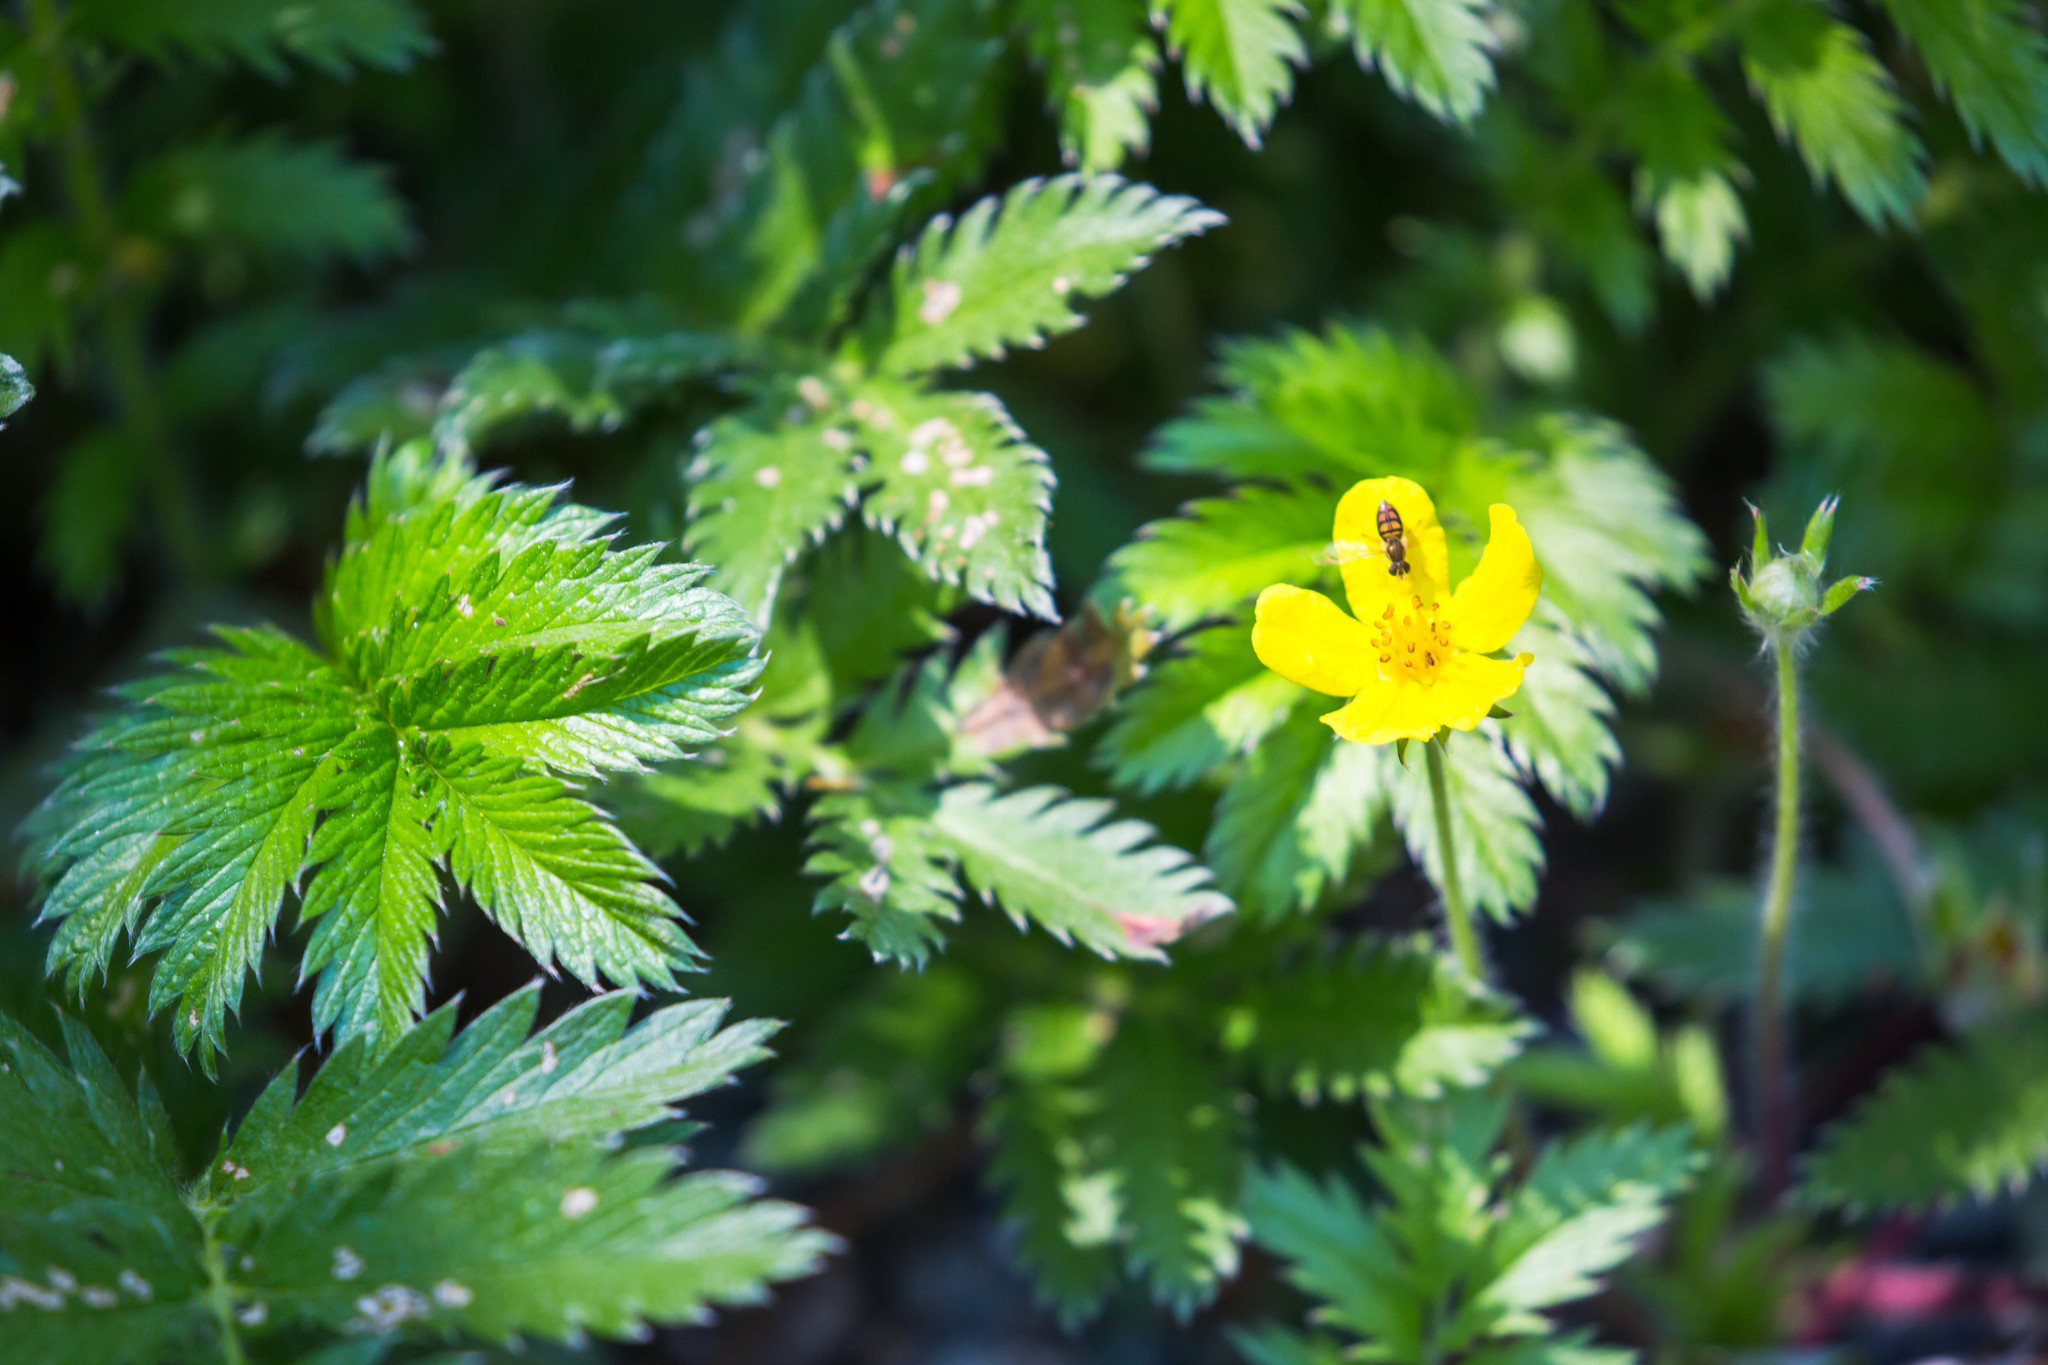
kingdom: Plantae
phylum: Tracheophyta
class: Magnoliopsida
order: Rosales
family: Rosaceae
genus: Argentina
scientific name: Argentina anserina
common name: Common silverweed
